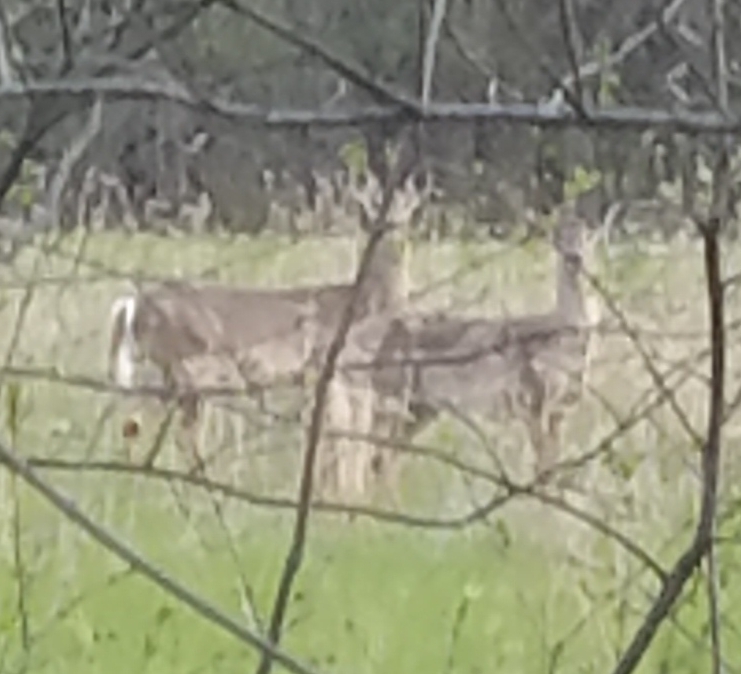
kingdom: Animalia
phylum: Chordata
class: Mammalia
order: Artiodactyla
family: Cervidae
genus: Odocoileus
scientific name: Odocoileus virginianus
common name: White-tailed deer
